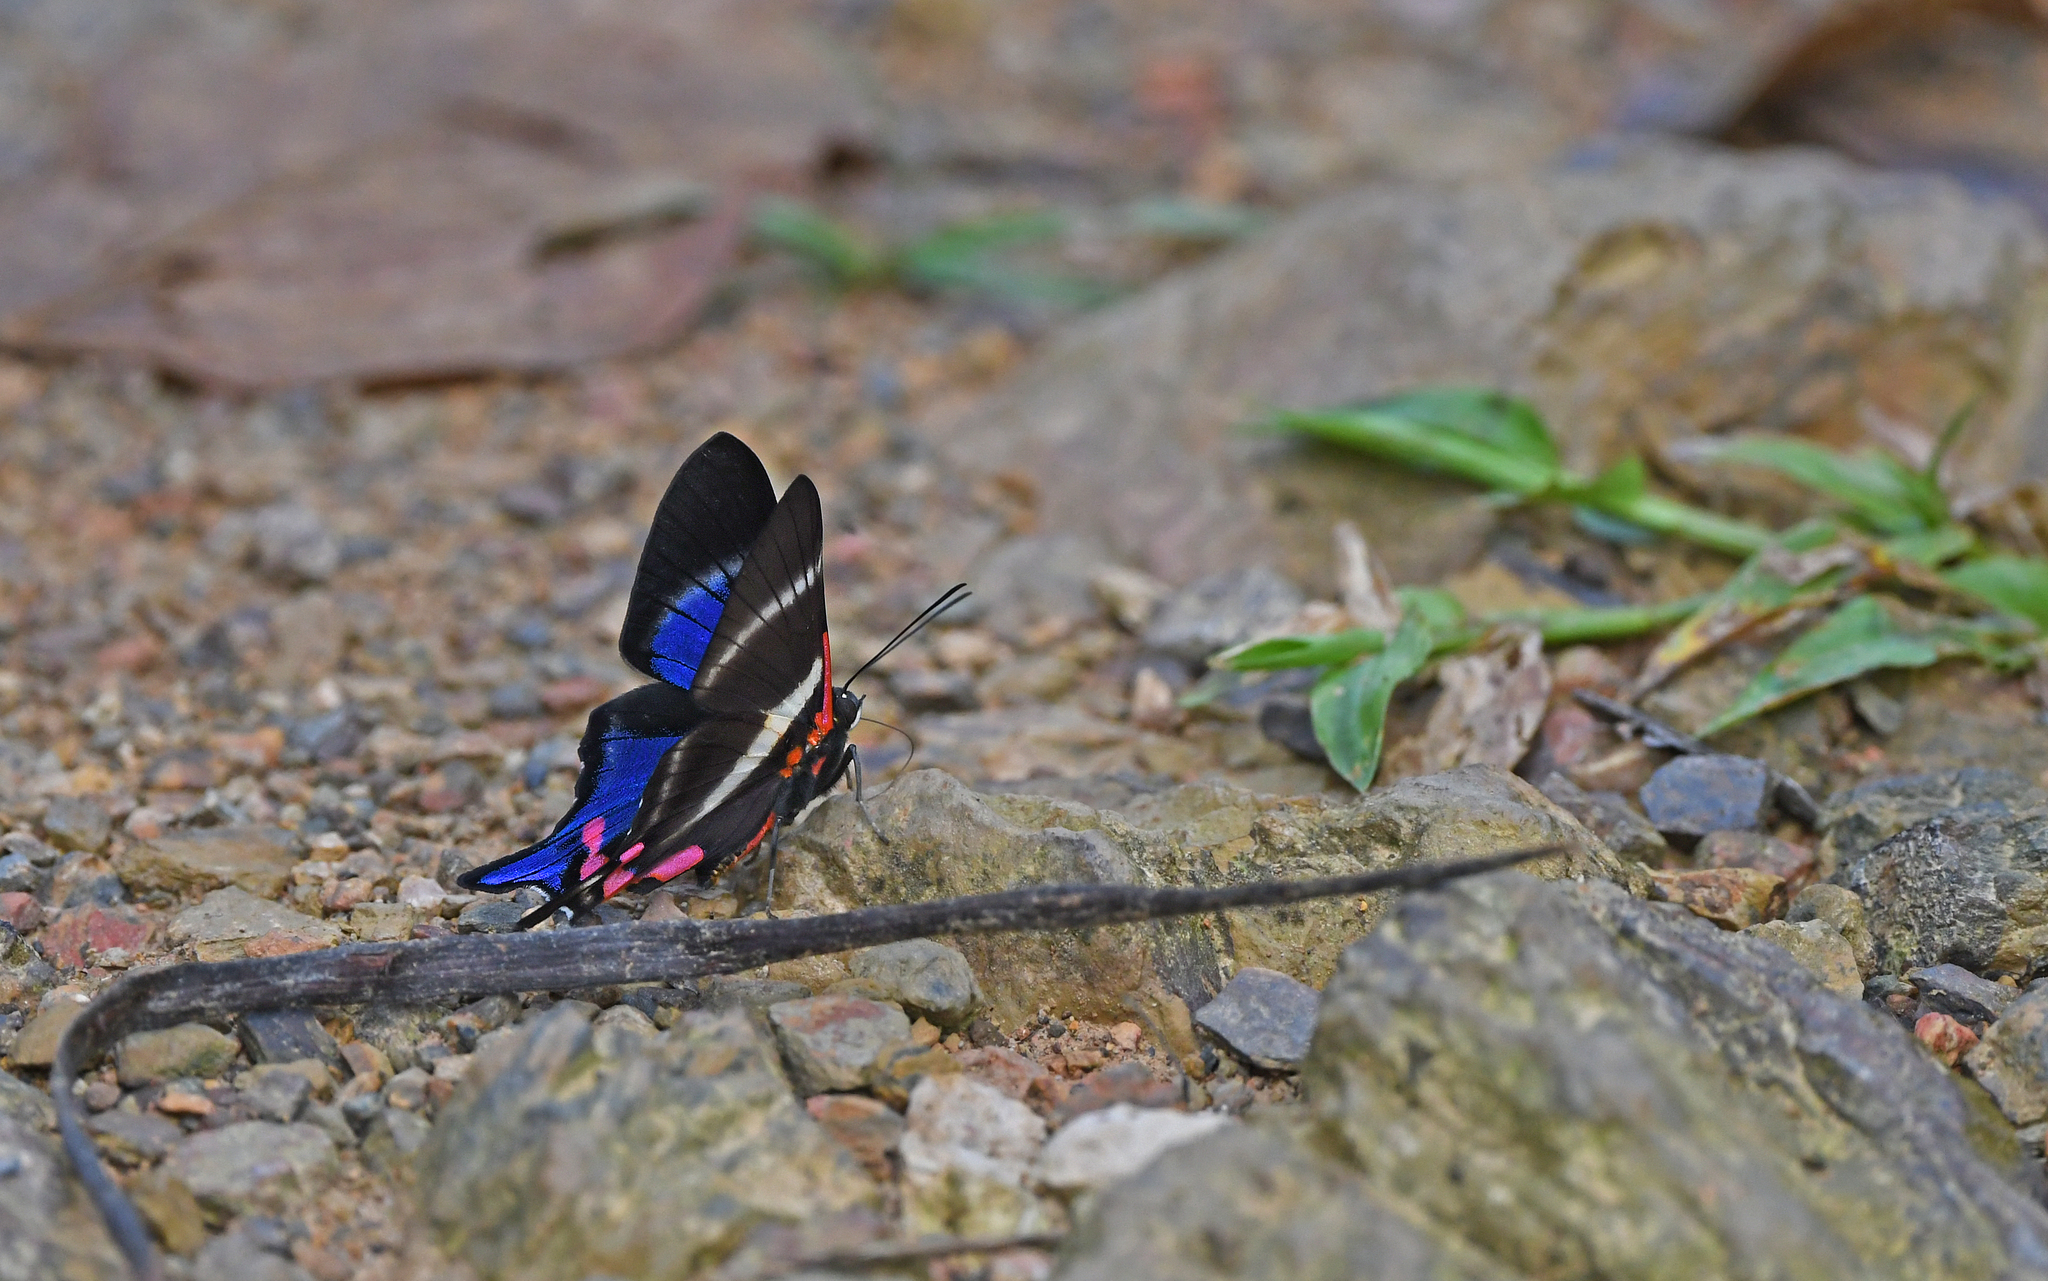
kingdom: Animalia
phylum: Arthropoda
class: Insecta
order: Lepidoptera
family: Riodinidae
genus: Rhetus
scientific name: Rhetus periander
